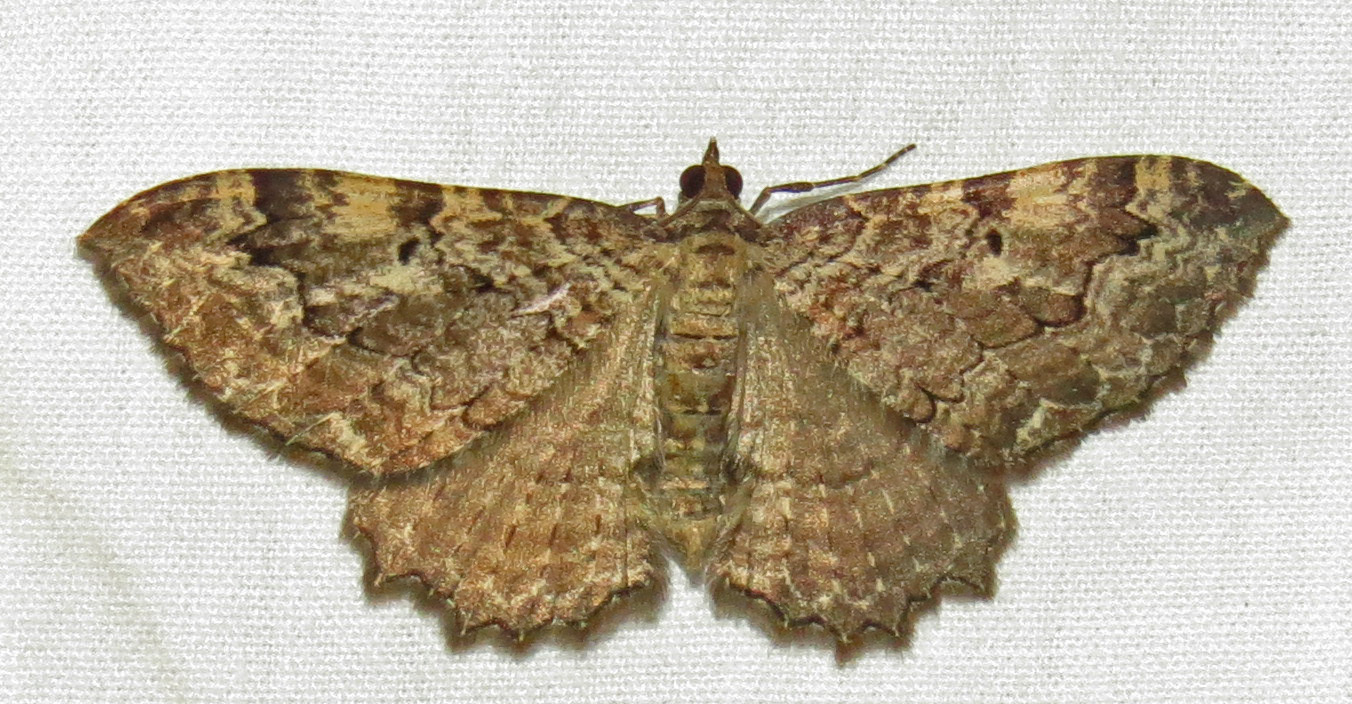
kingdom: Animalia
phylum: Arthropoda
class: Insecta
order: Lepidoptera
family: Geometridae
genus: Rheumaptera
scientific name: Rheumaptera
